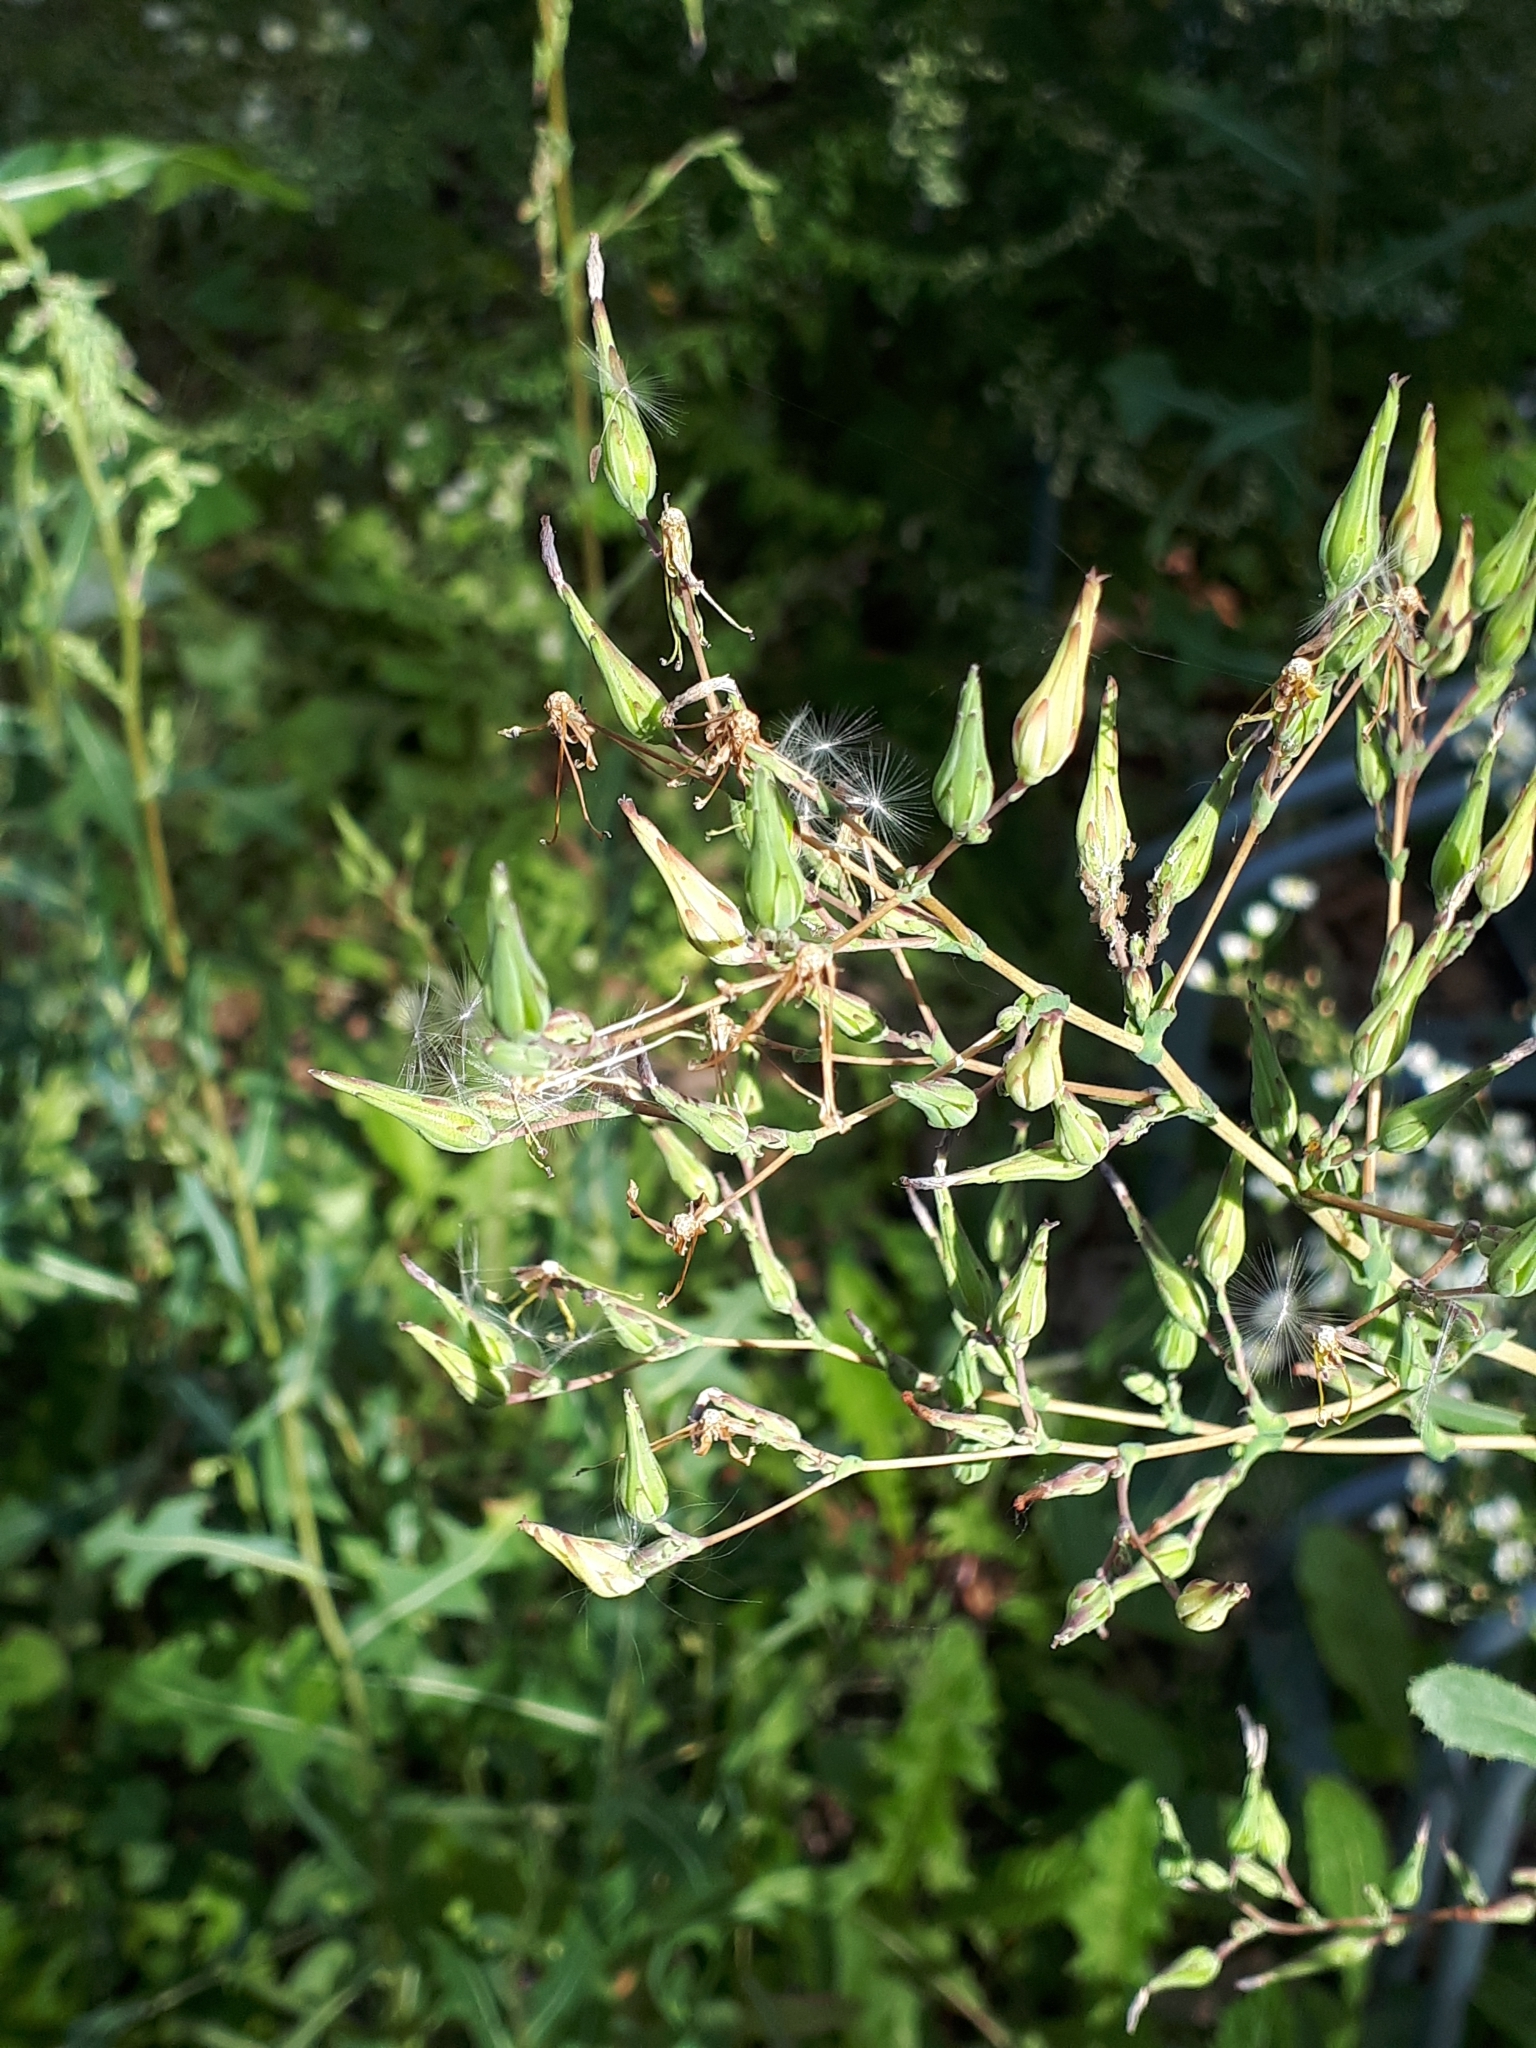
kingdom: Plantae
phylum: Tracheophyta
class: Magnoliopsida
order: Asterales
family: Asteraceae
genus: Lactuca
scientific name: Lactuca serriola
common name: Prickly lettuce
